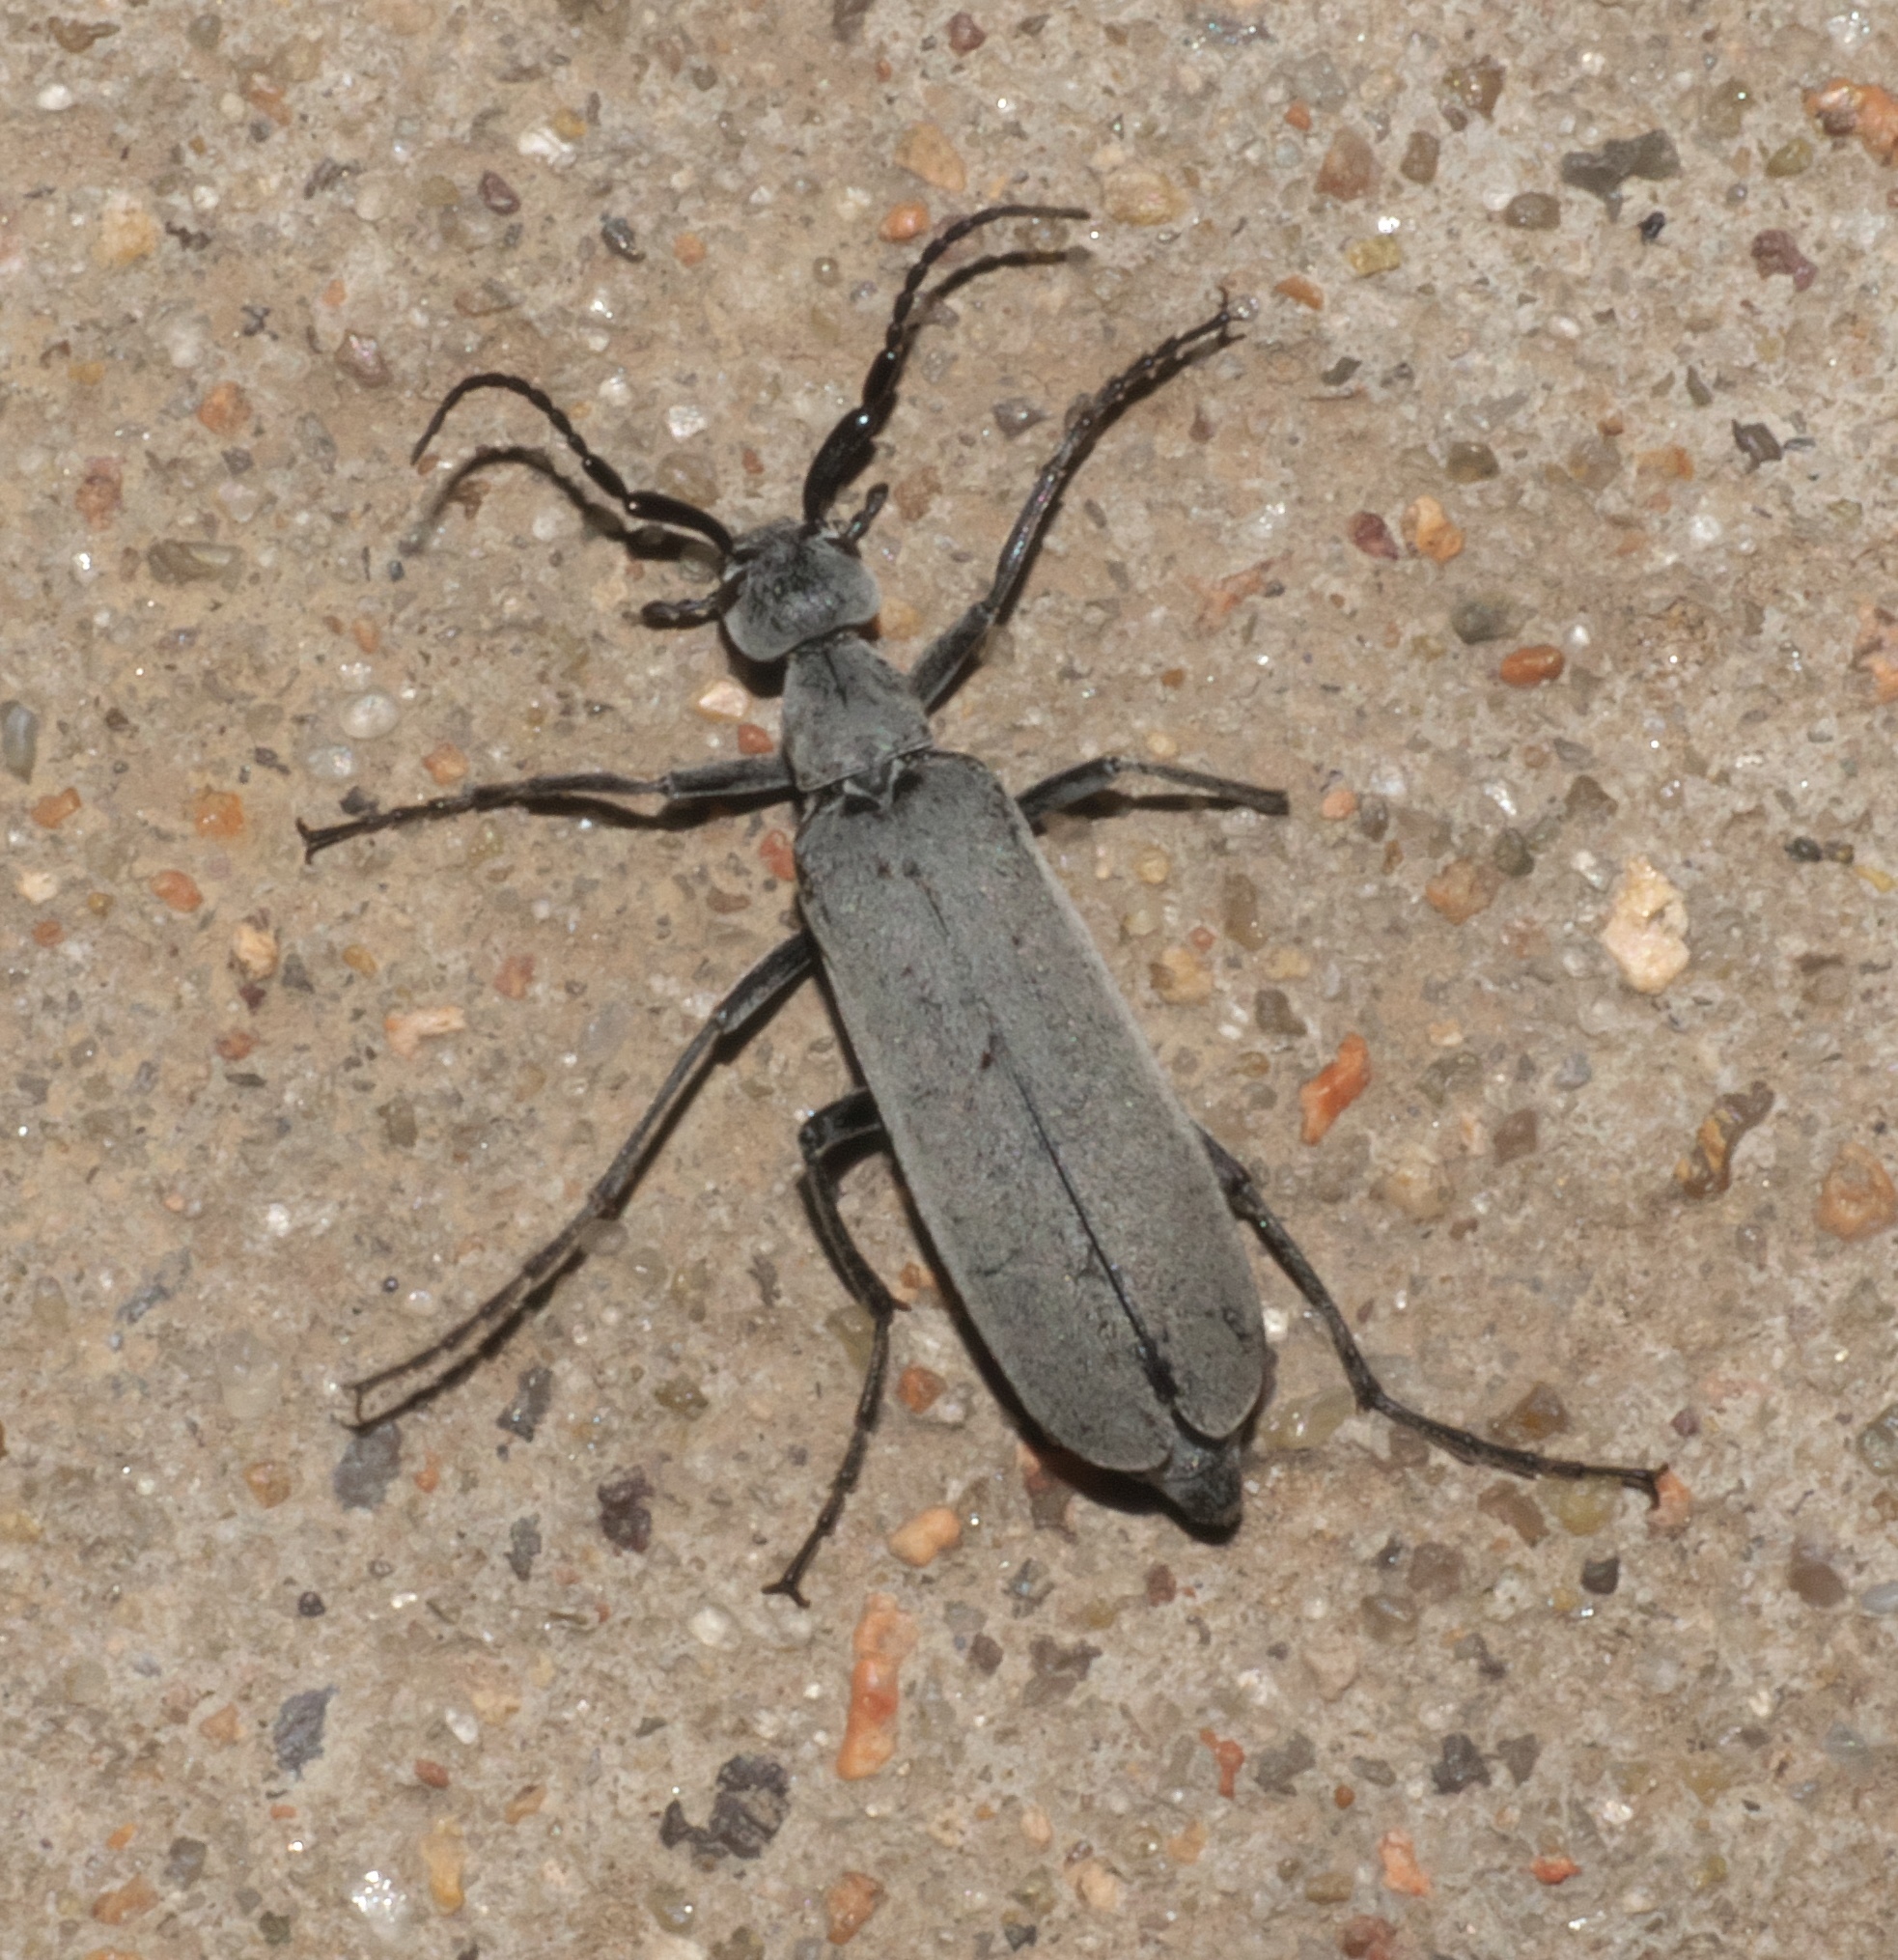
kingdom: Animalia
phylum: Arthropoda
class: Insecta
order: Coleoptera
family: Meloidae
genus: Epicauta
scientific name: Epicauta fabricii
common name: Ashgray blister beetle
